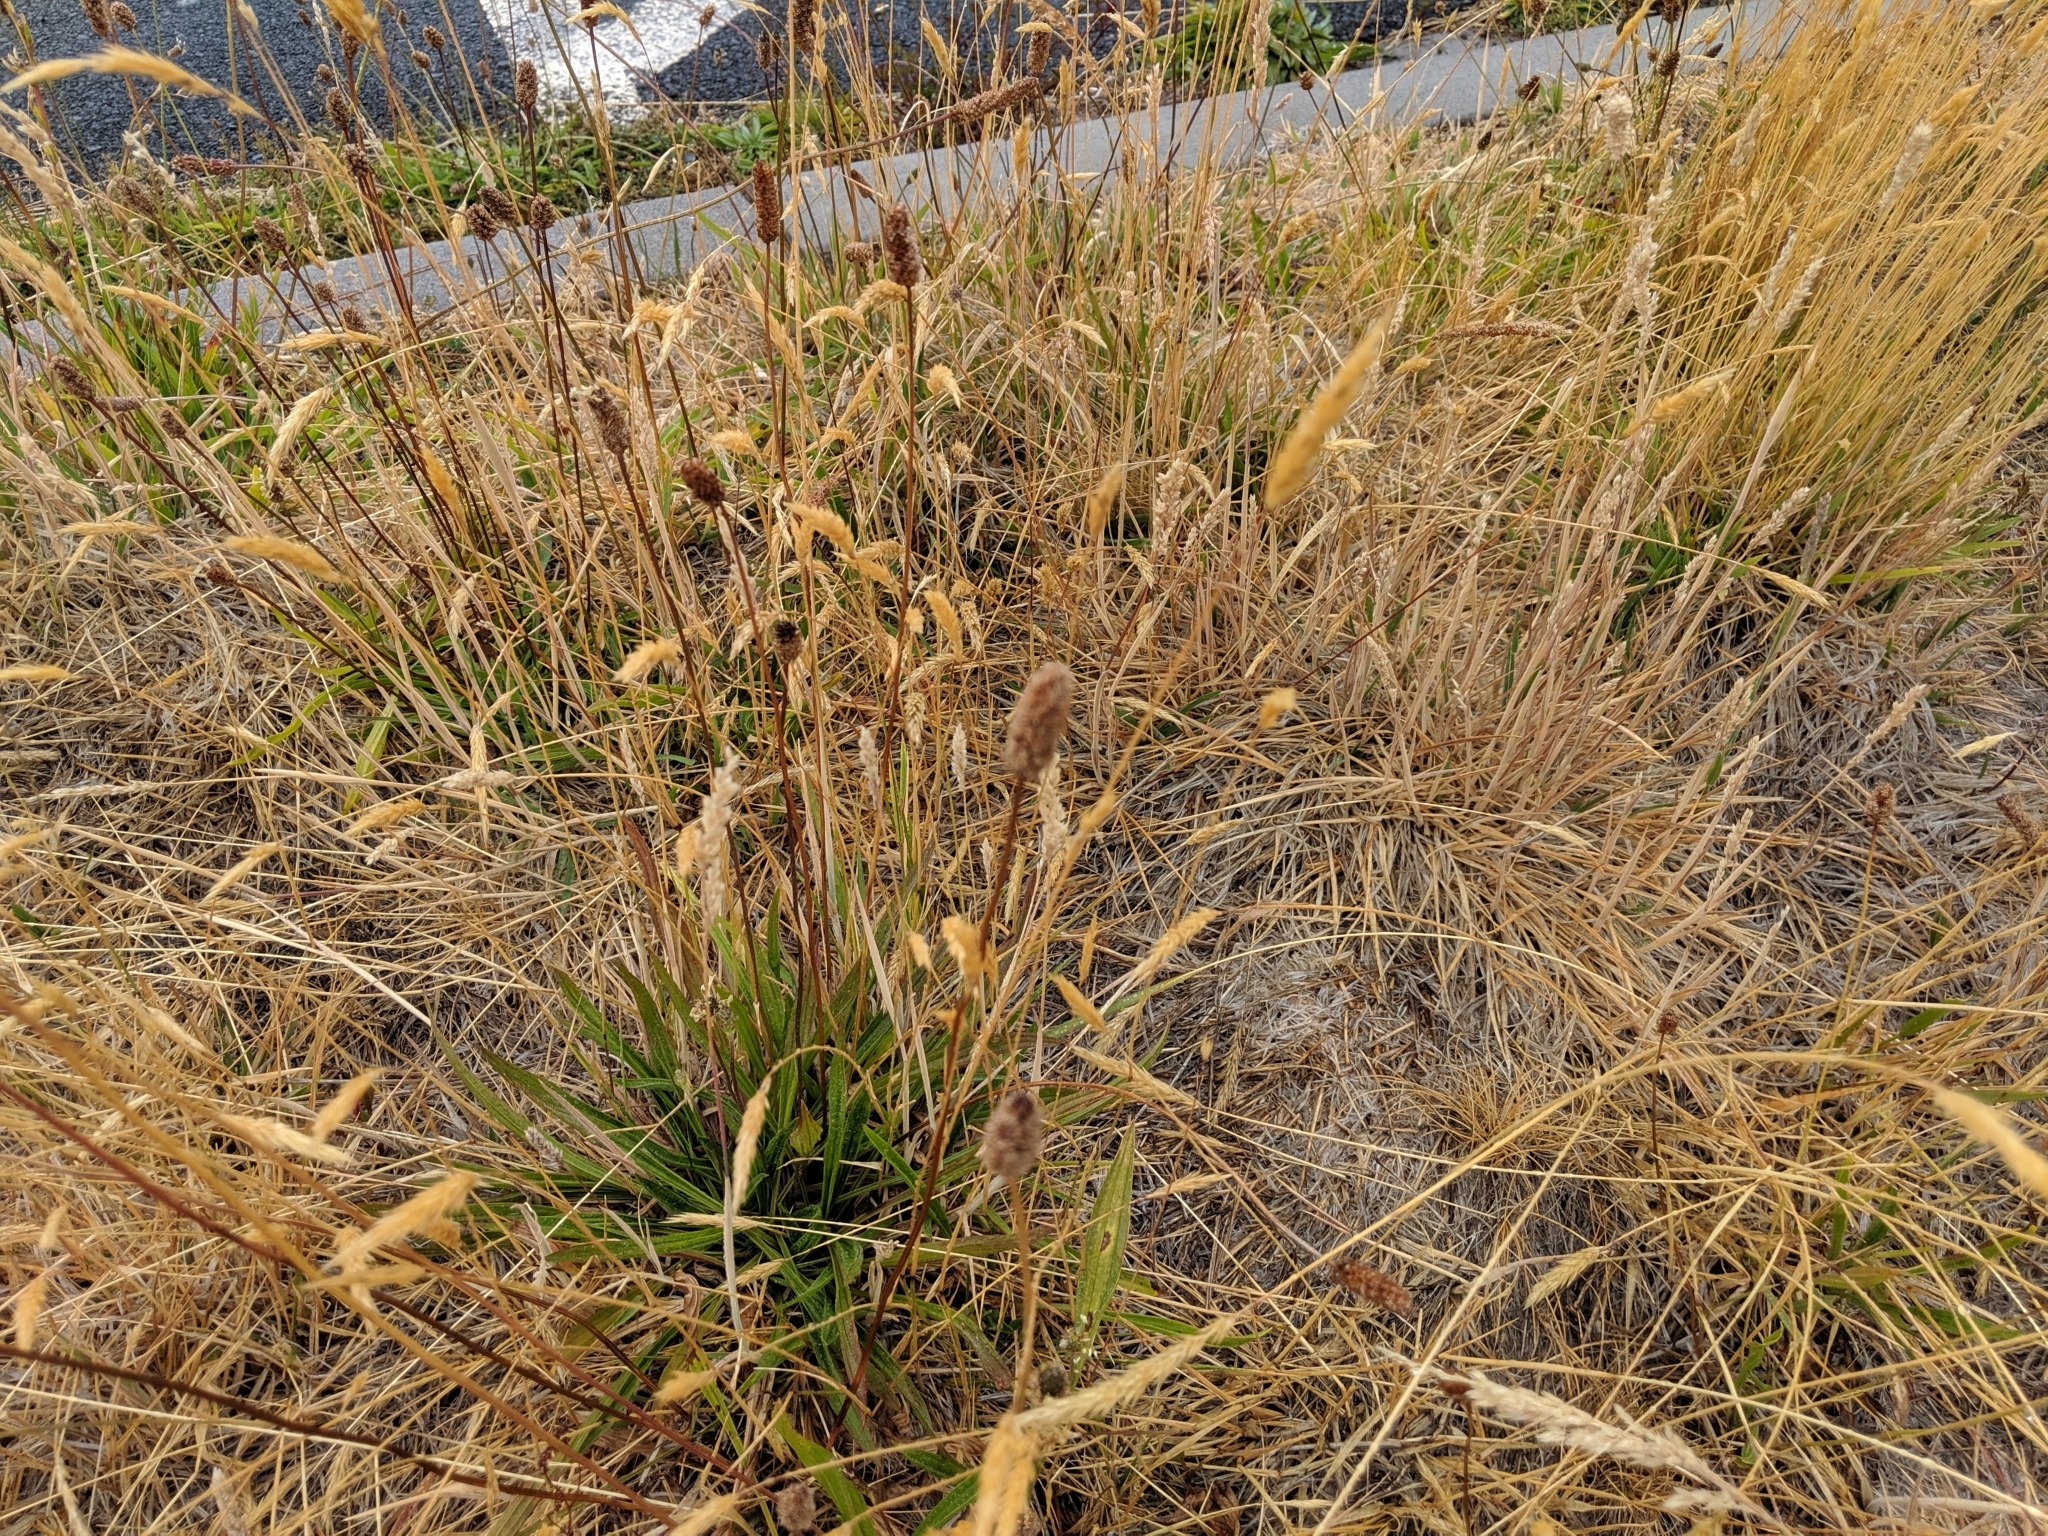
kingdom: Plantae
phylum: Tracheophyta
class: Liliopsida
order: Poales
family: Poaceae
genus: Anthoxanthum
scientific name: Anthoxanthum odoratum
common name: Sweet vernalgrass
